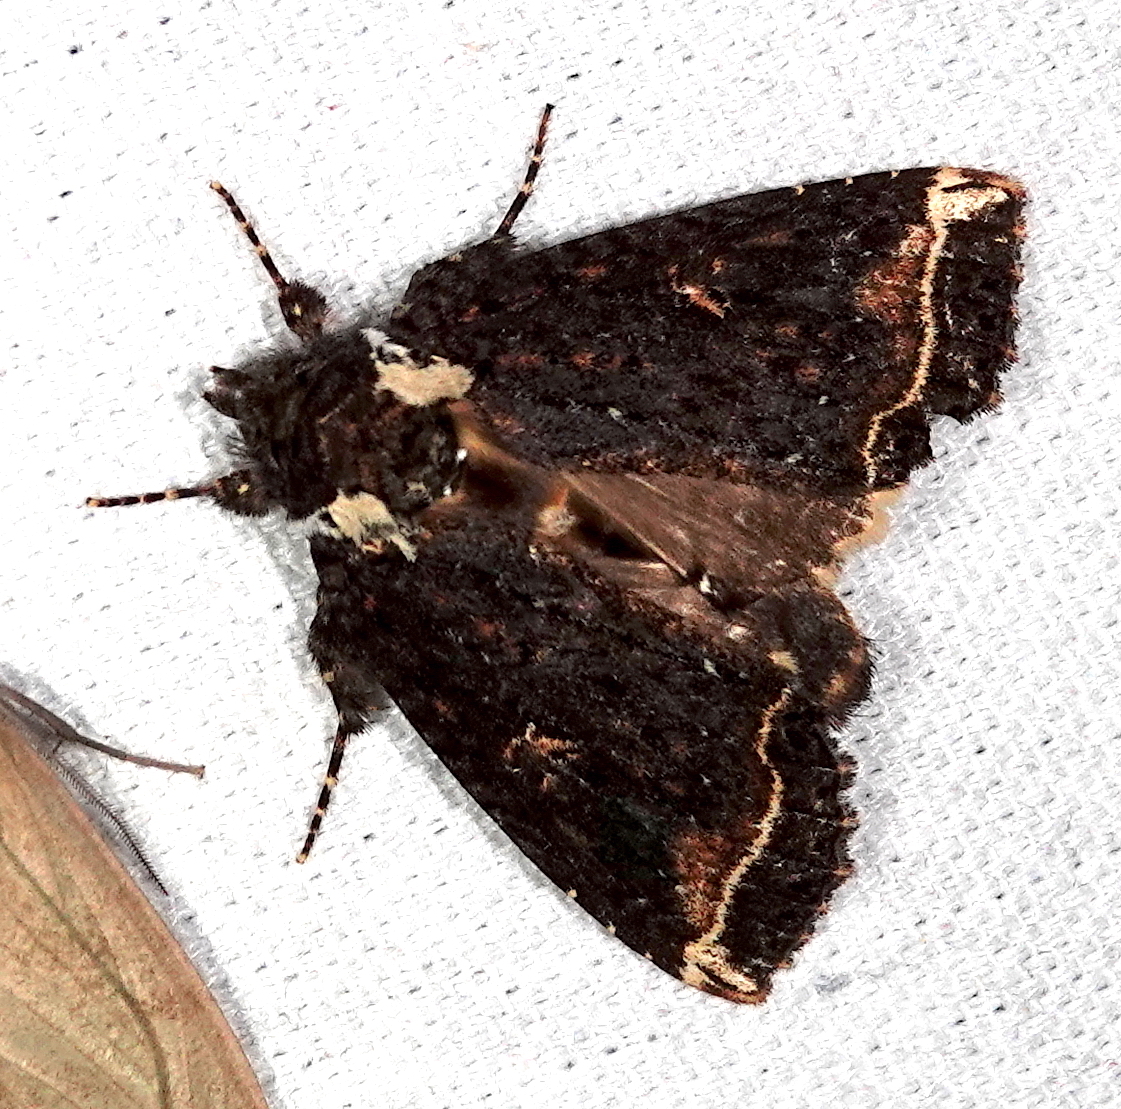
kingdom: Animalia
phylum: Arthropoda
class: Insecta
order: Lepidoptera
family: Noctuidae
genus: Cropia
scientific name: Cropia phila
